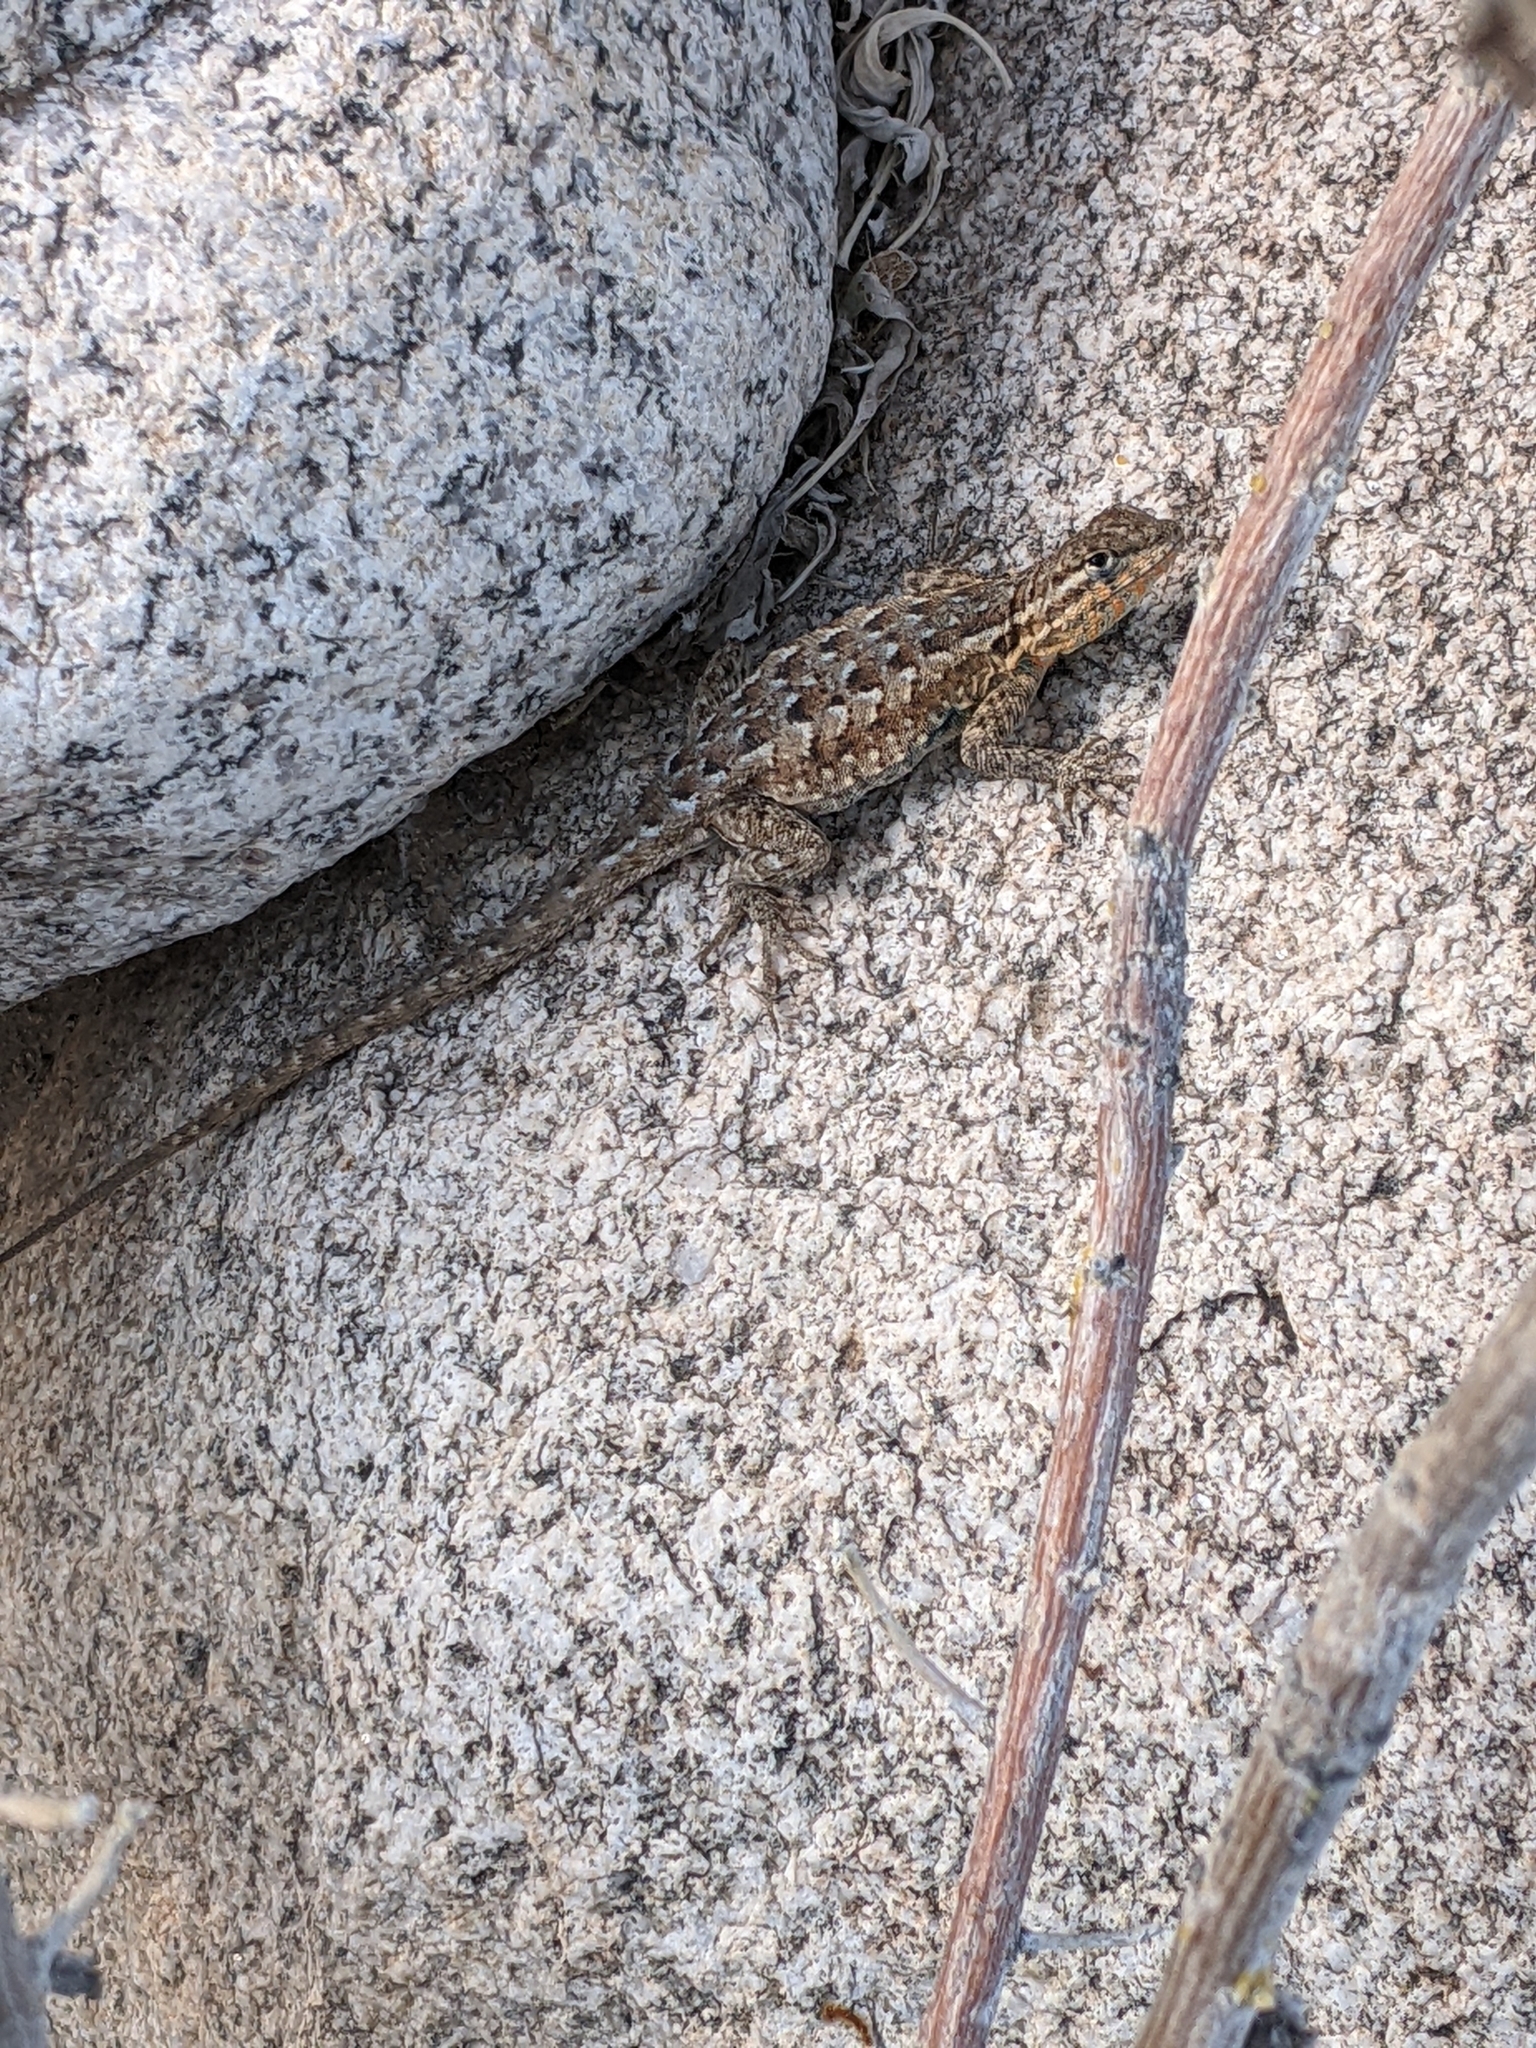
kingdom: Animalia
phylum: Chordata
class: Squamata
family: Phrynosomatidae
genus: Uta
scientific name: Uta stansburiana
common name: Side-blotched lizard
